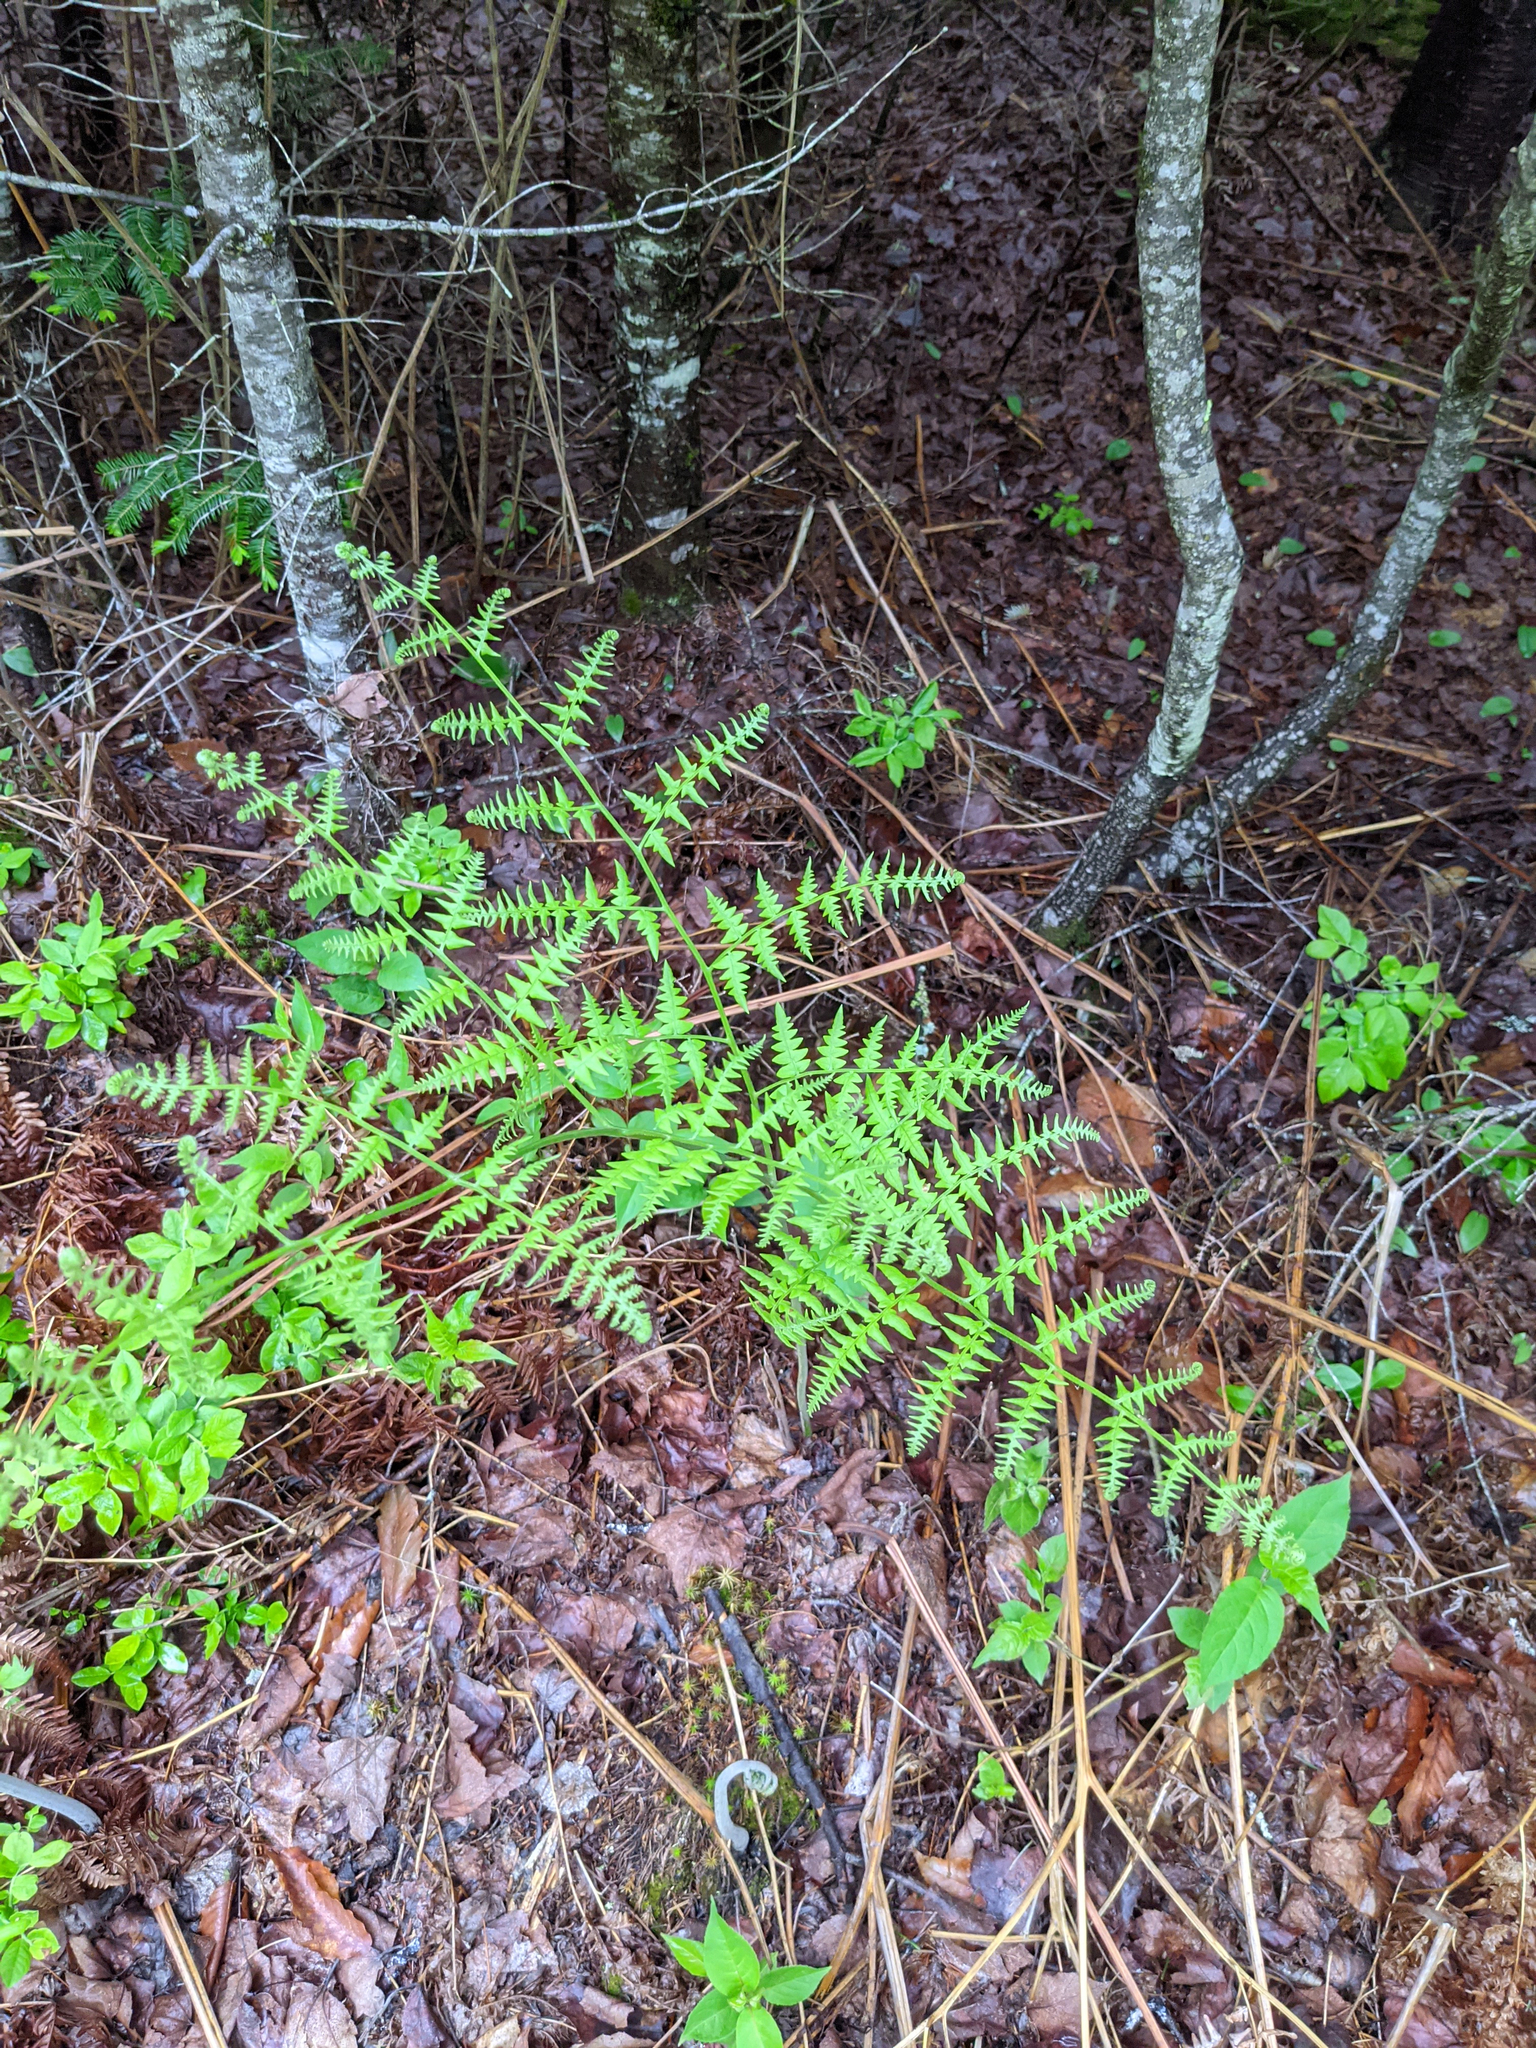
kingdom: Plantae
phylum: Tracheophyta
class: Polypodiopsida
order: Polypodiales
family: Dennstaedtiaceae
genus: Pteridium
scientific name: Pteridium aquilinum
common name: Bracken
